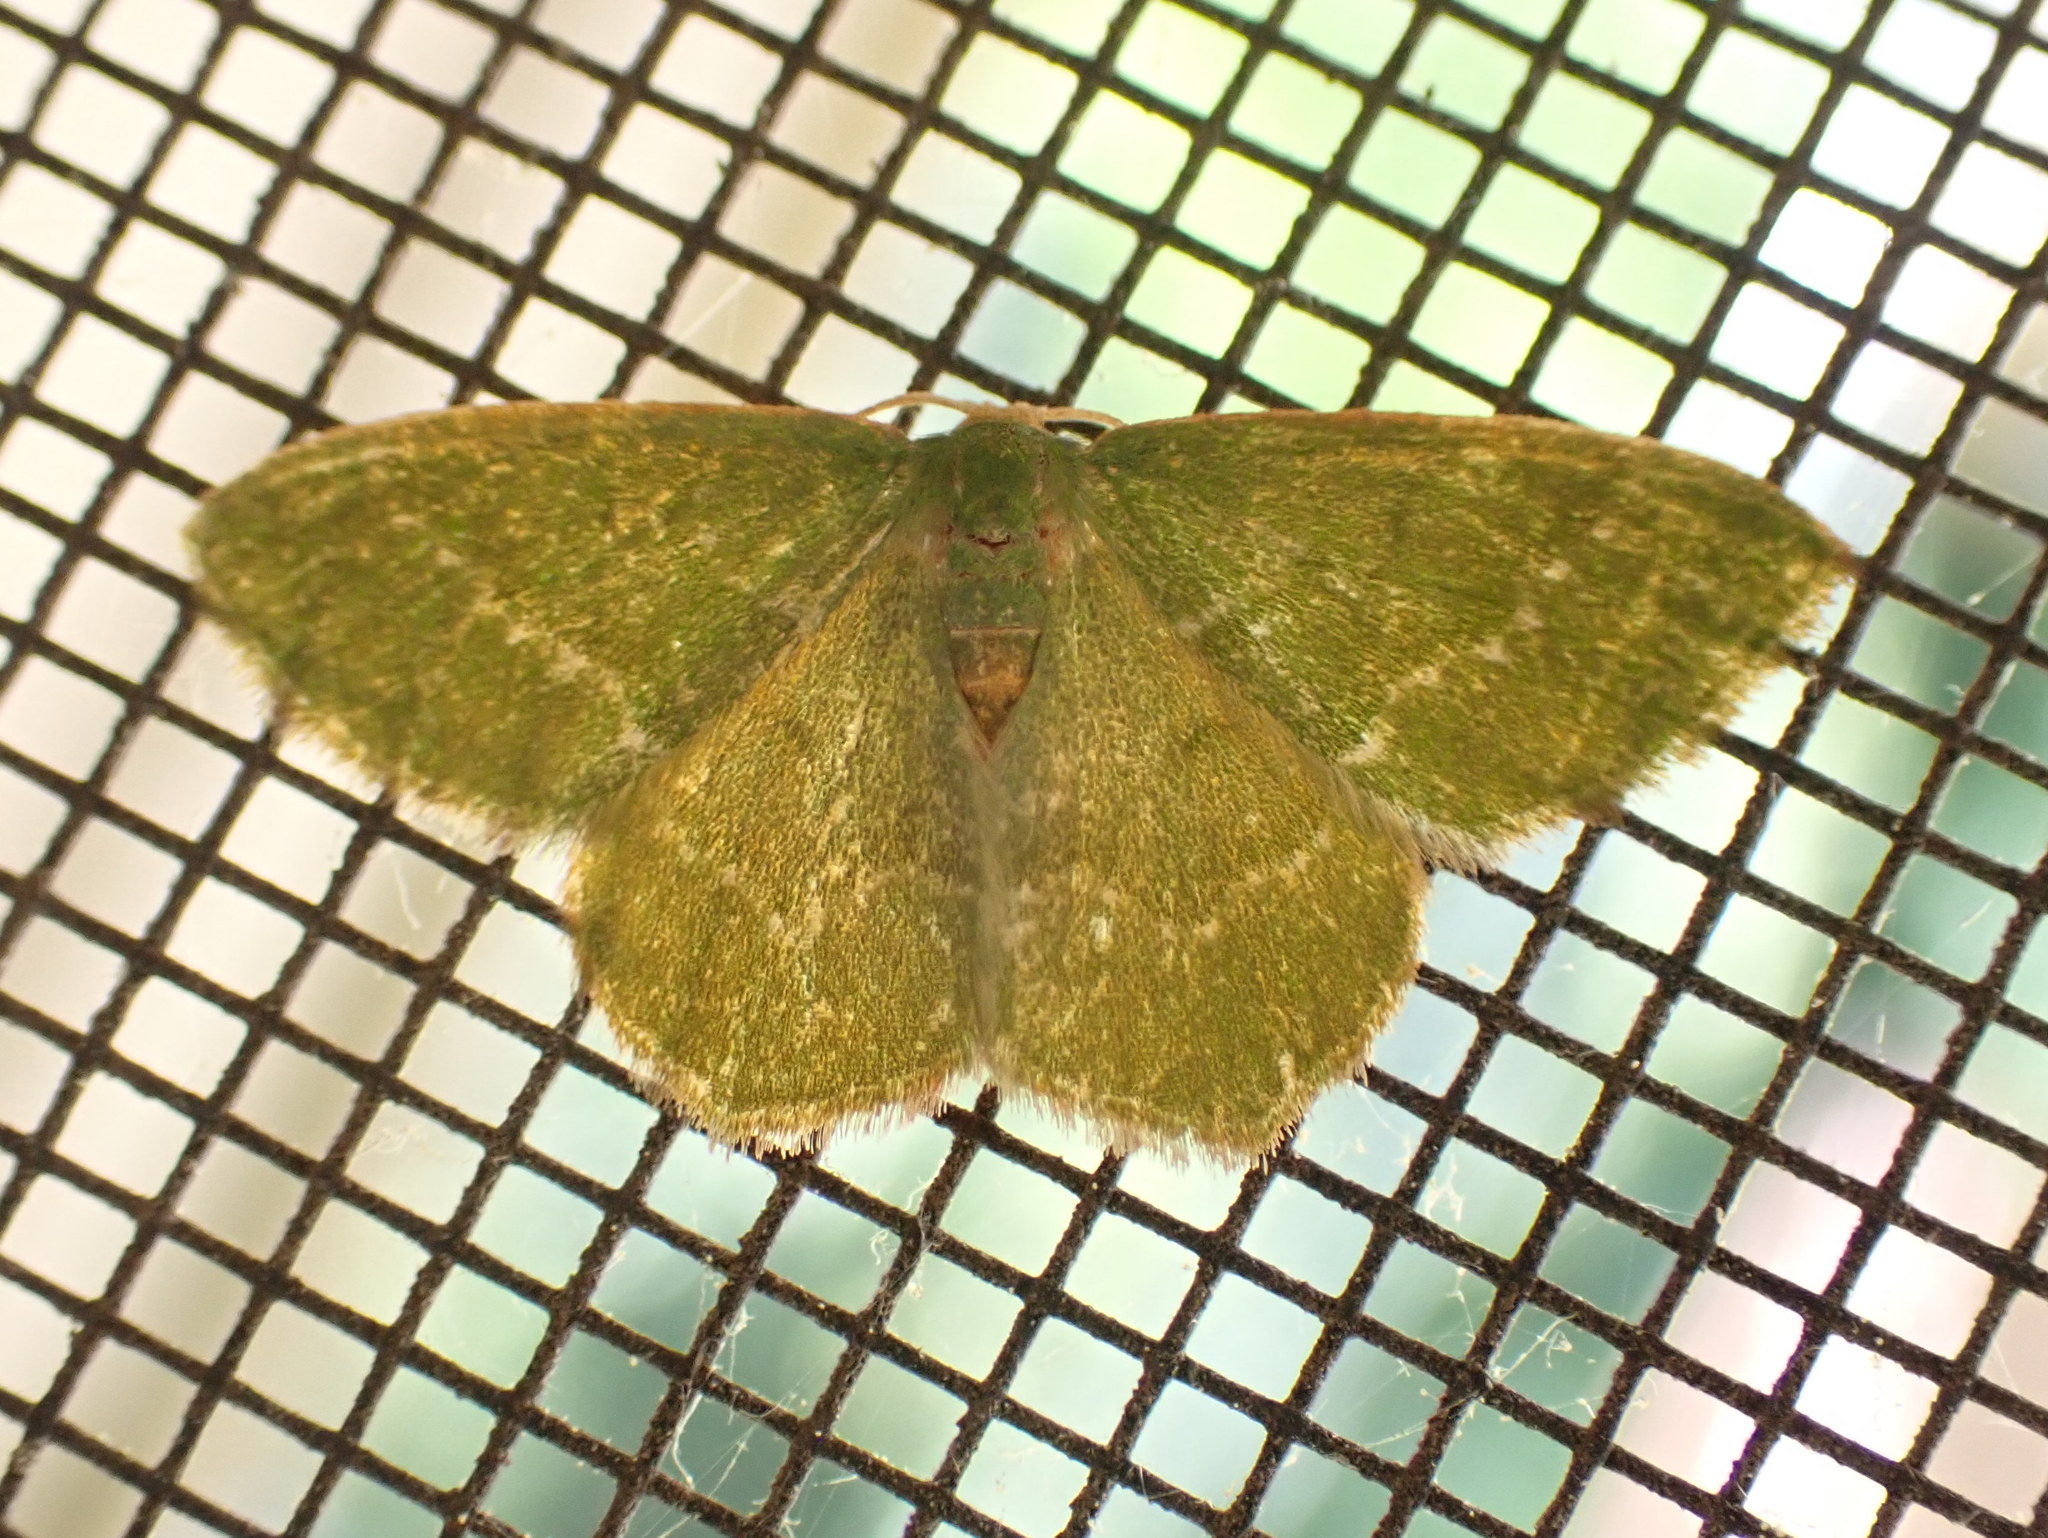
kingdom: Animalia
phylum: Arthropoda
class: Insecta
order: Lepidoptera
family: Geometridae
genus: Thalera
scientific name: Thalera pistasciaria
